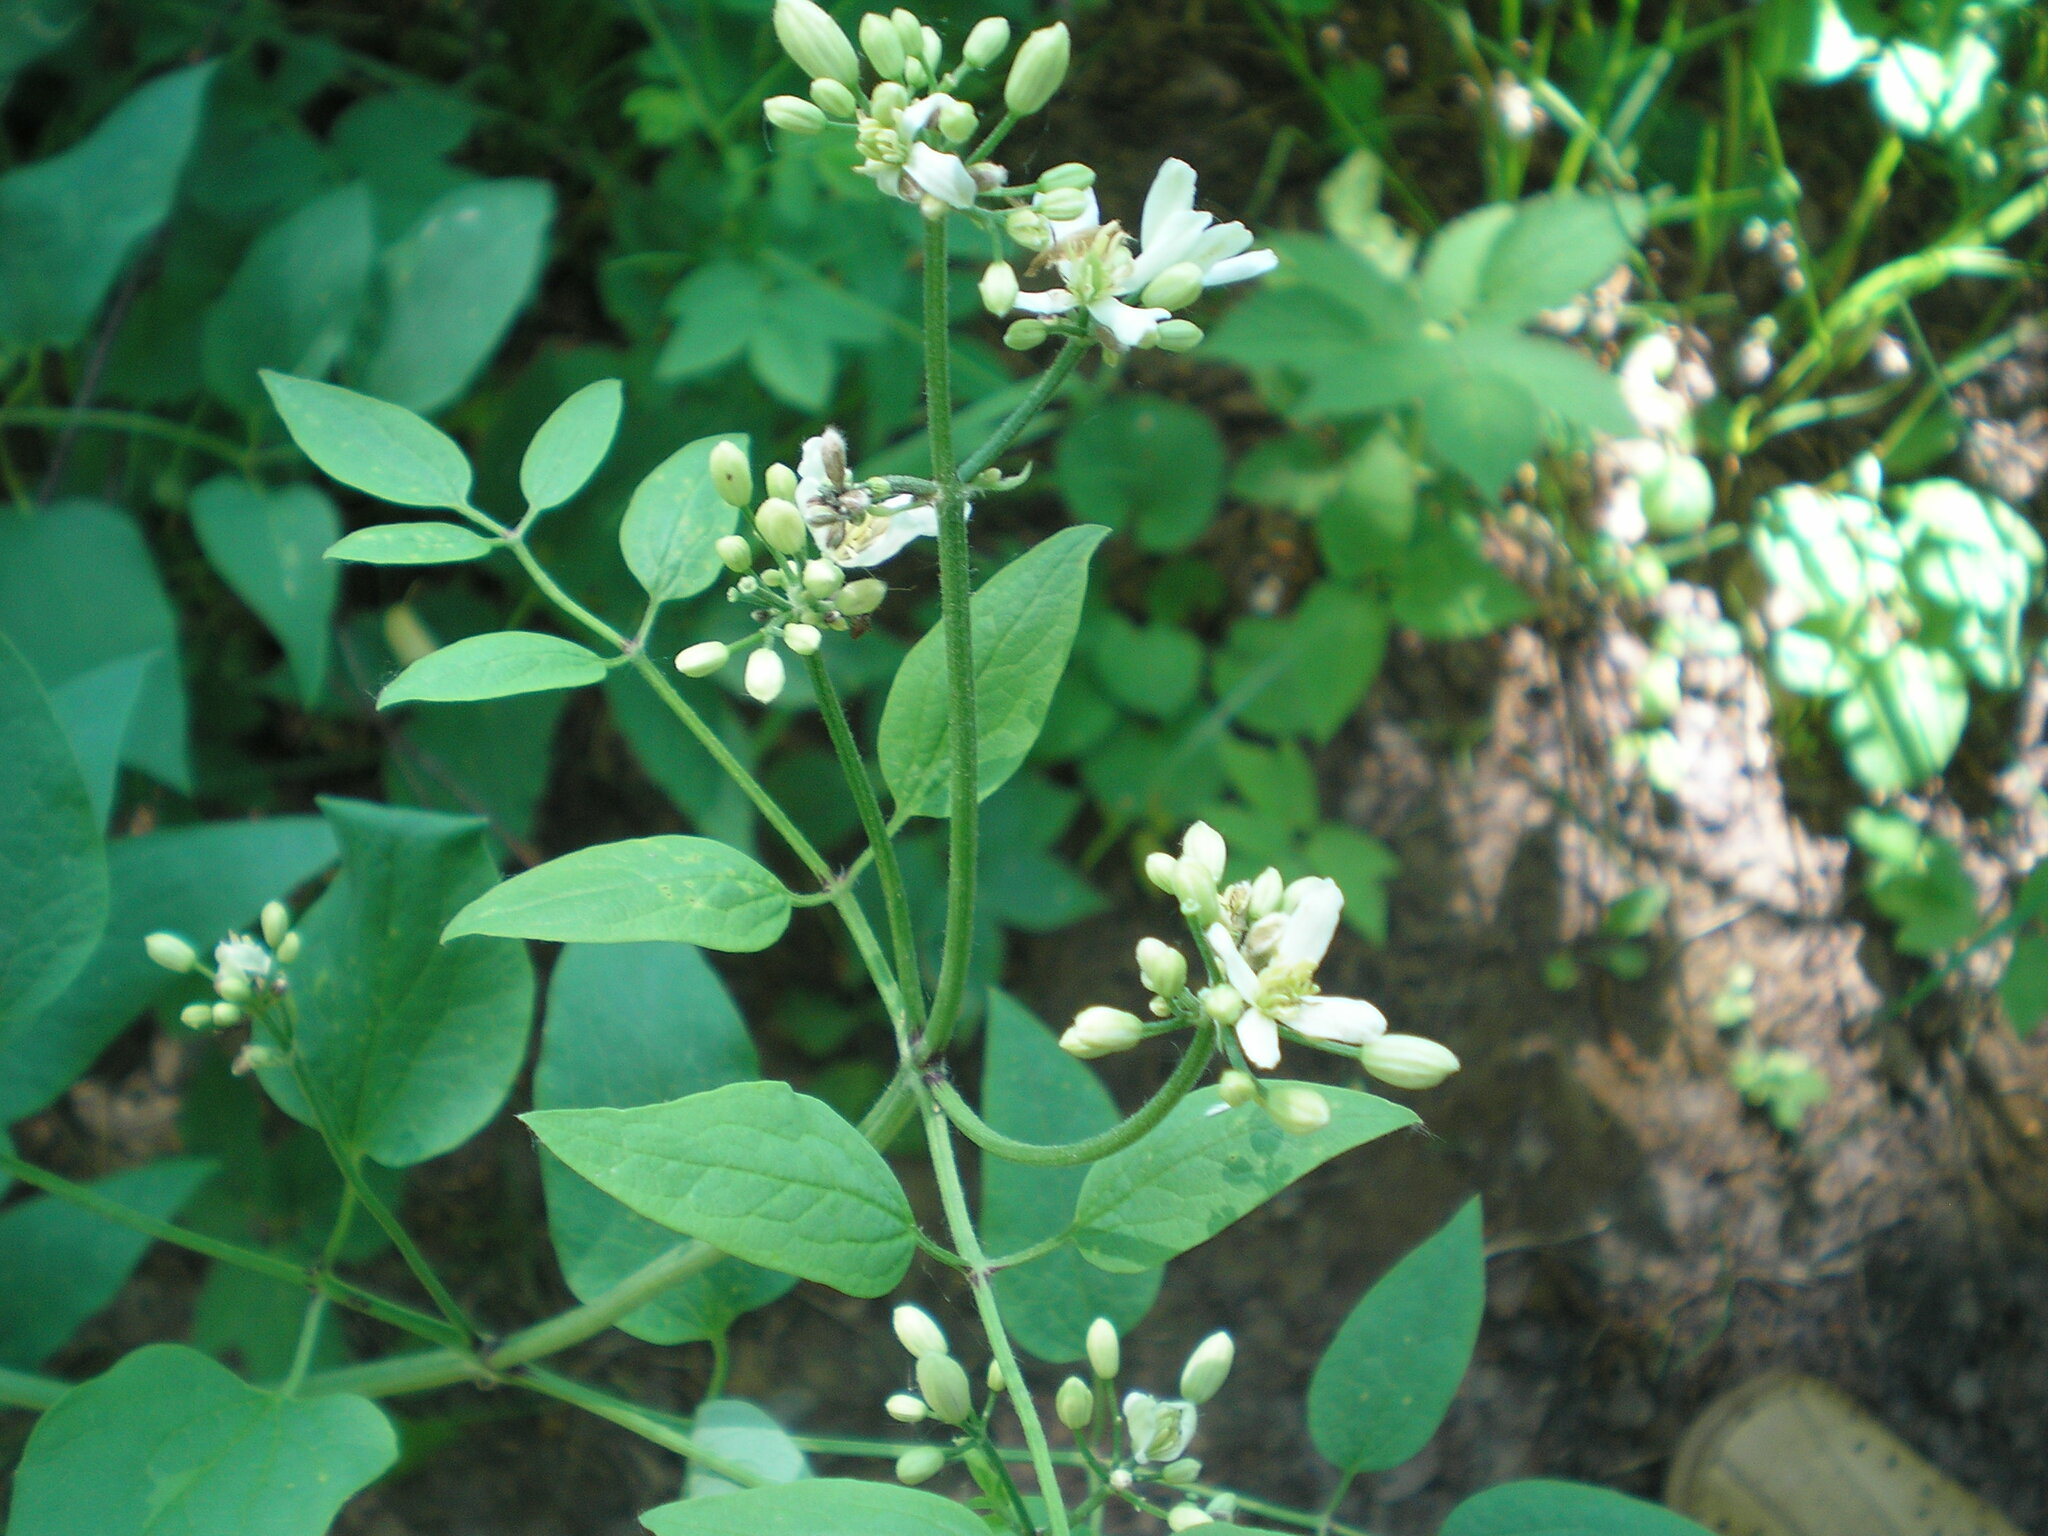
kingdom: Plantae
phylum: Tracheophyta
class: Magnoliopsida
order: Ranunculales
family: Ranunculaceae
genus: Clematis
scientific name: Clematis recta
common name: Ground clematis
